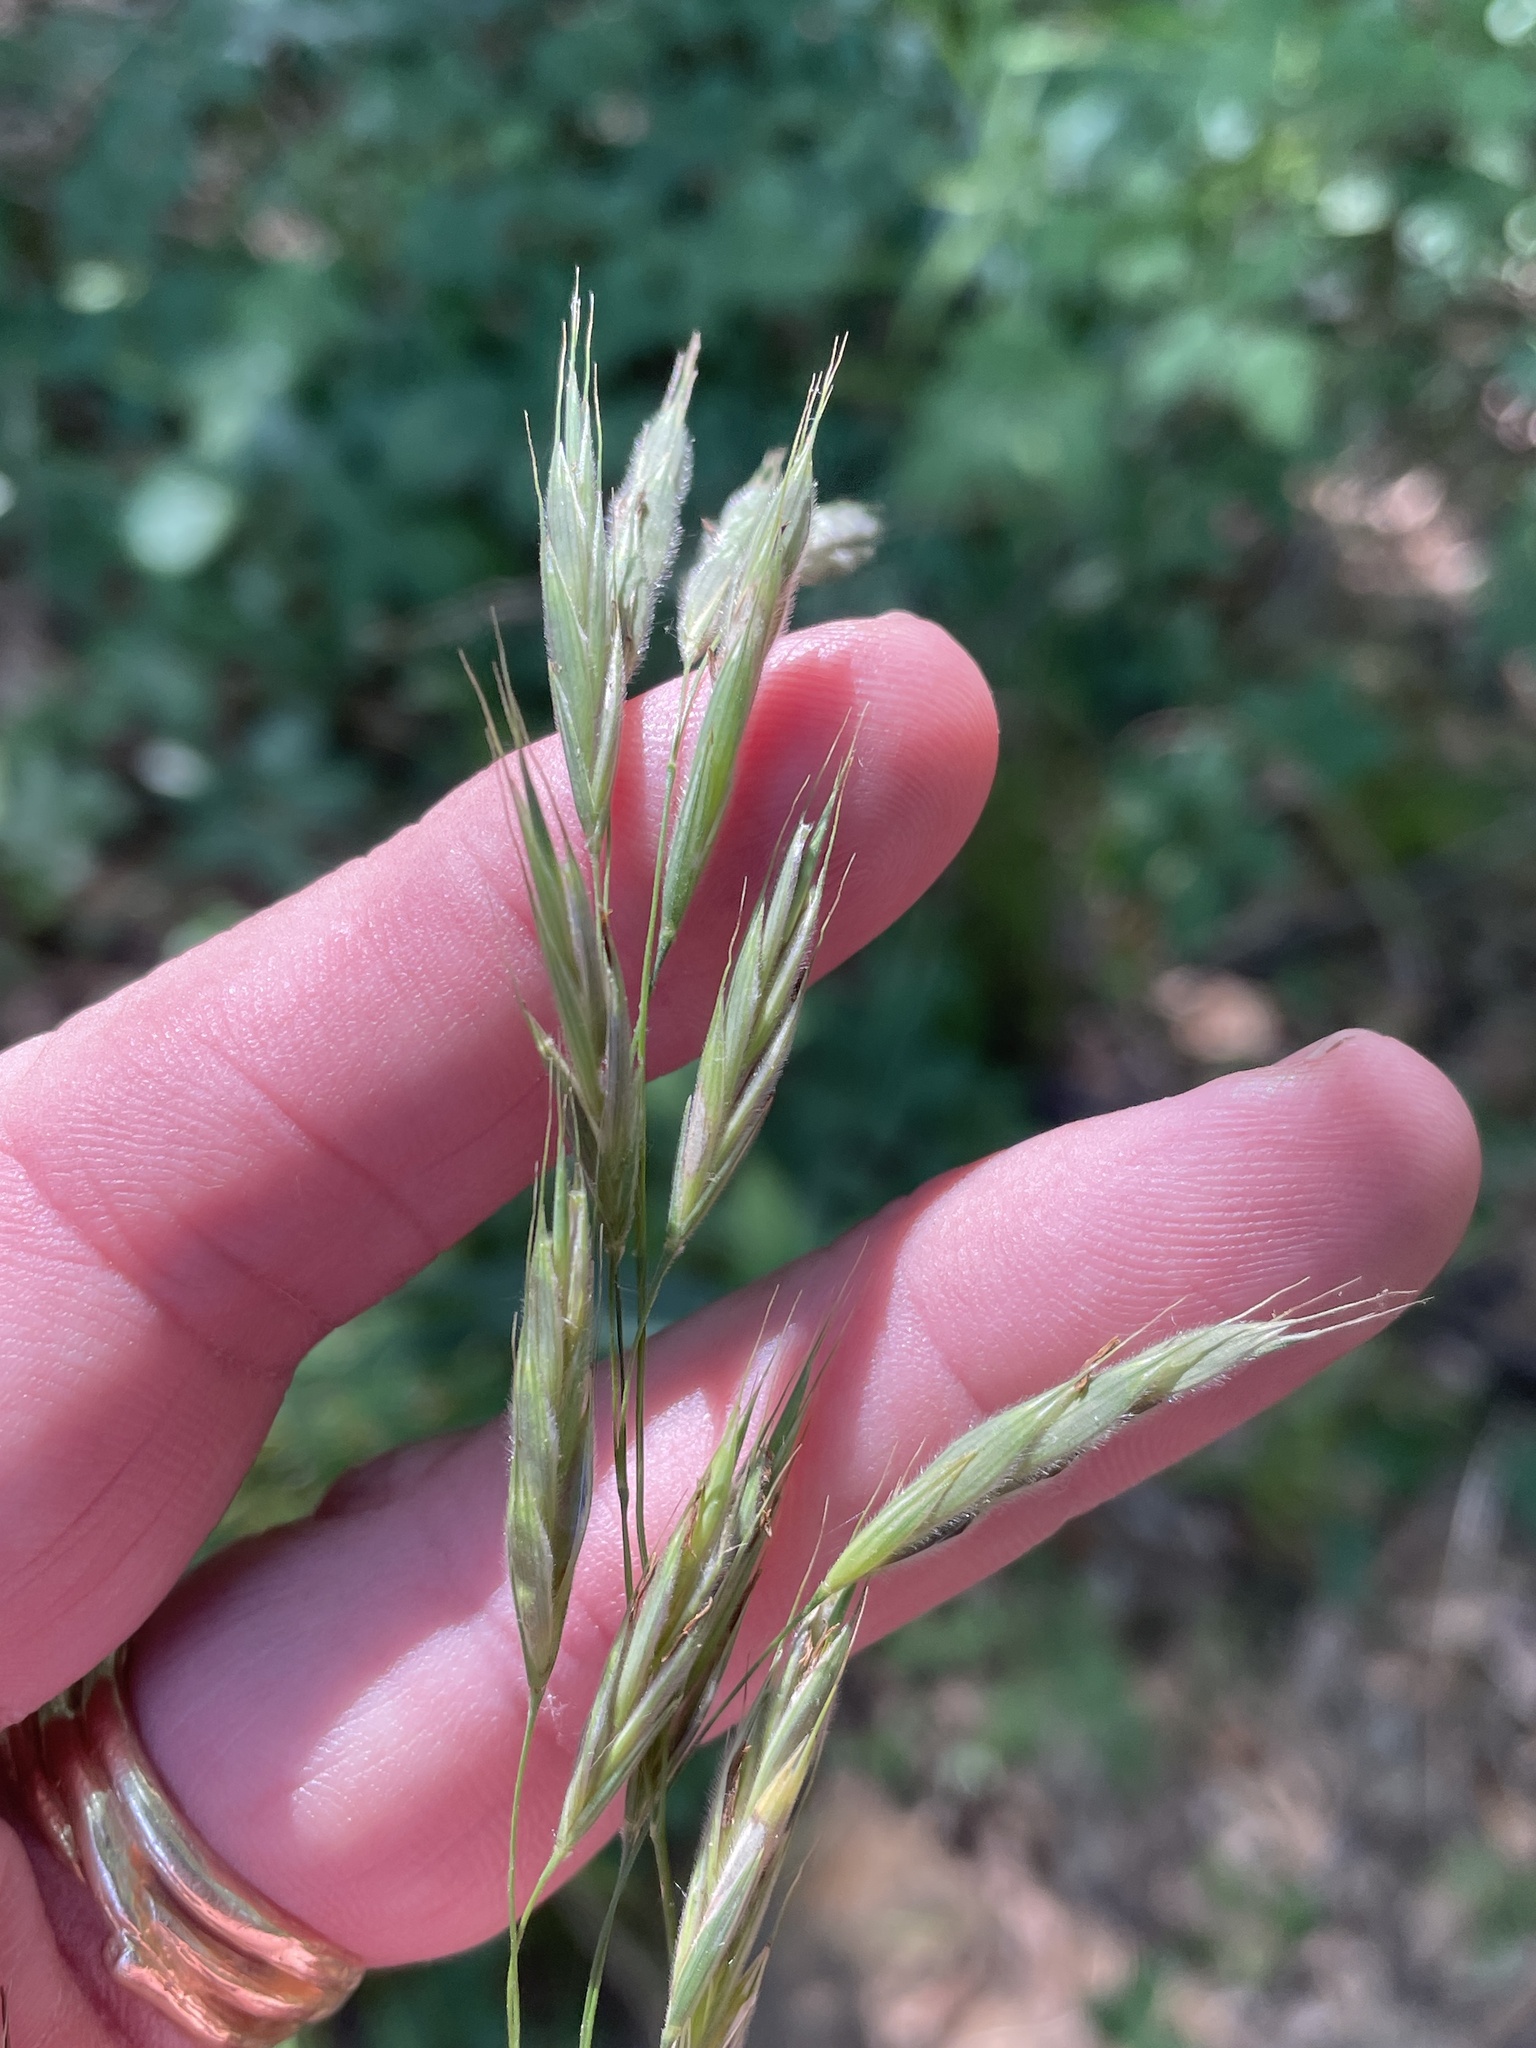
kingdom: Plantae
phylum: Tracheophyta
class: Liliopsida
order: Poales
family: Poaceae
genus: Bromus
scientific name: Bromus pubescens
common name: Hairy wood brome grass
